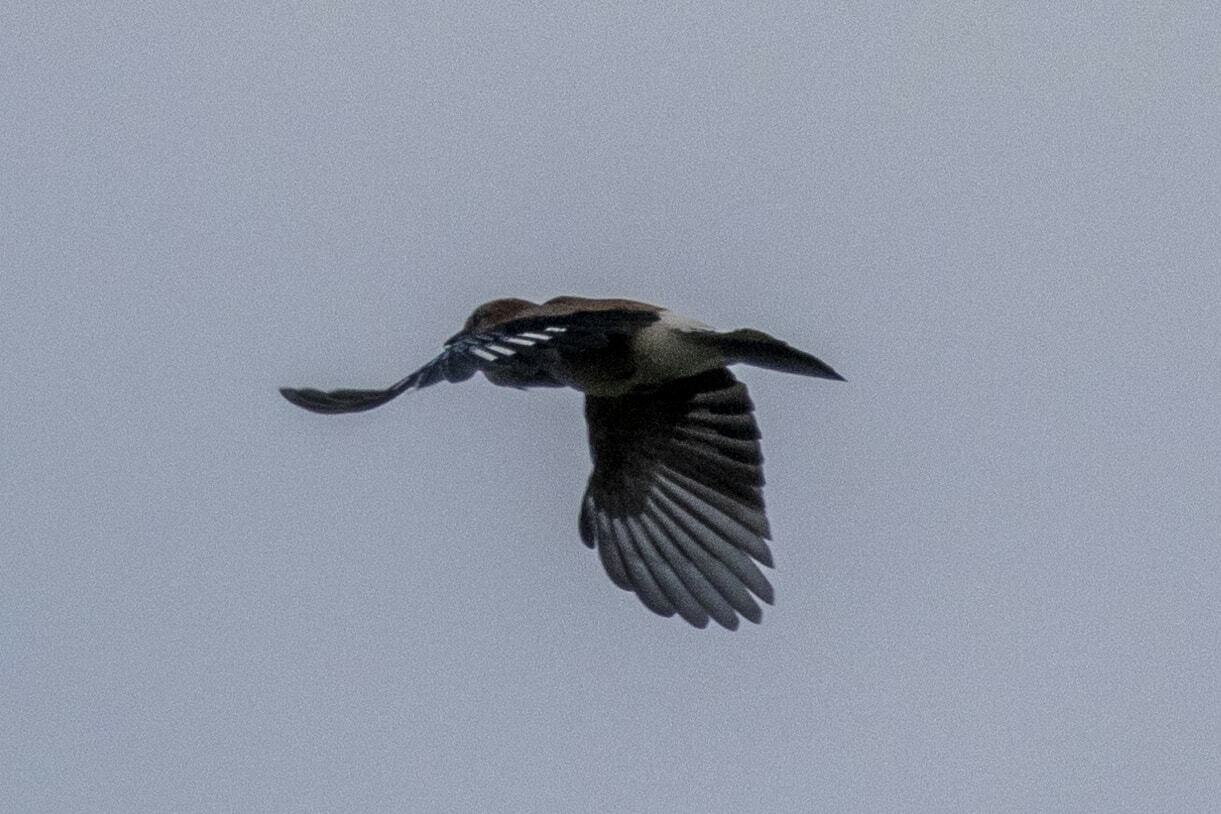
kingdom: Animalia
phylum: Chordata
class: Aves
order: Passeriformes
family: Corvidae
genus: Garrulus
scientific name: Garrulus glandarius
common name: Eurasian jay
